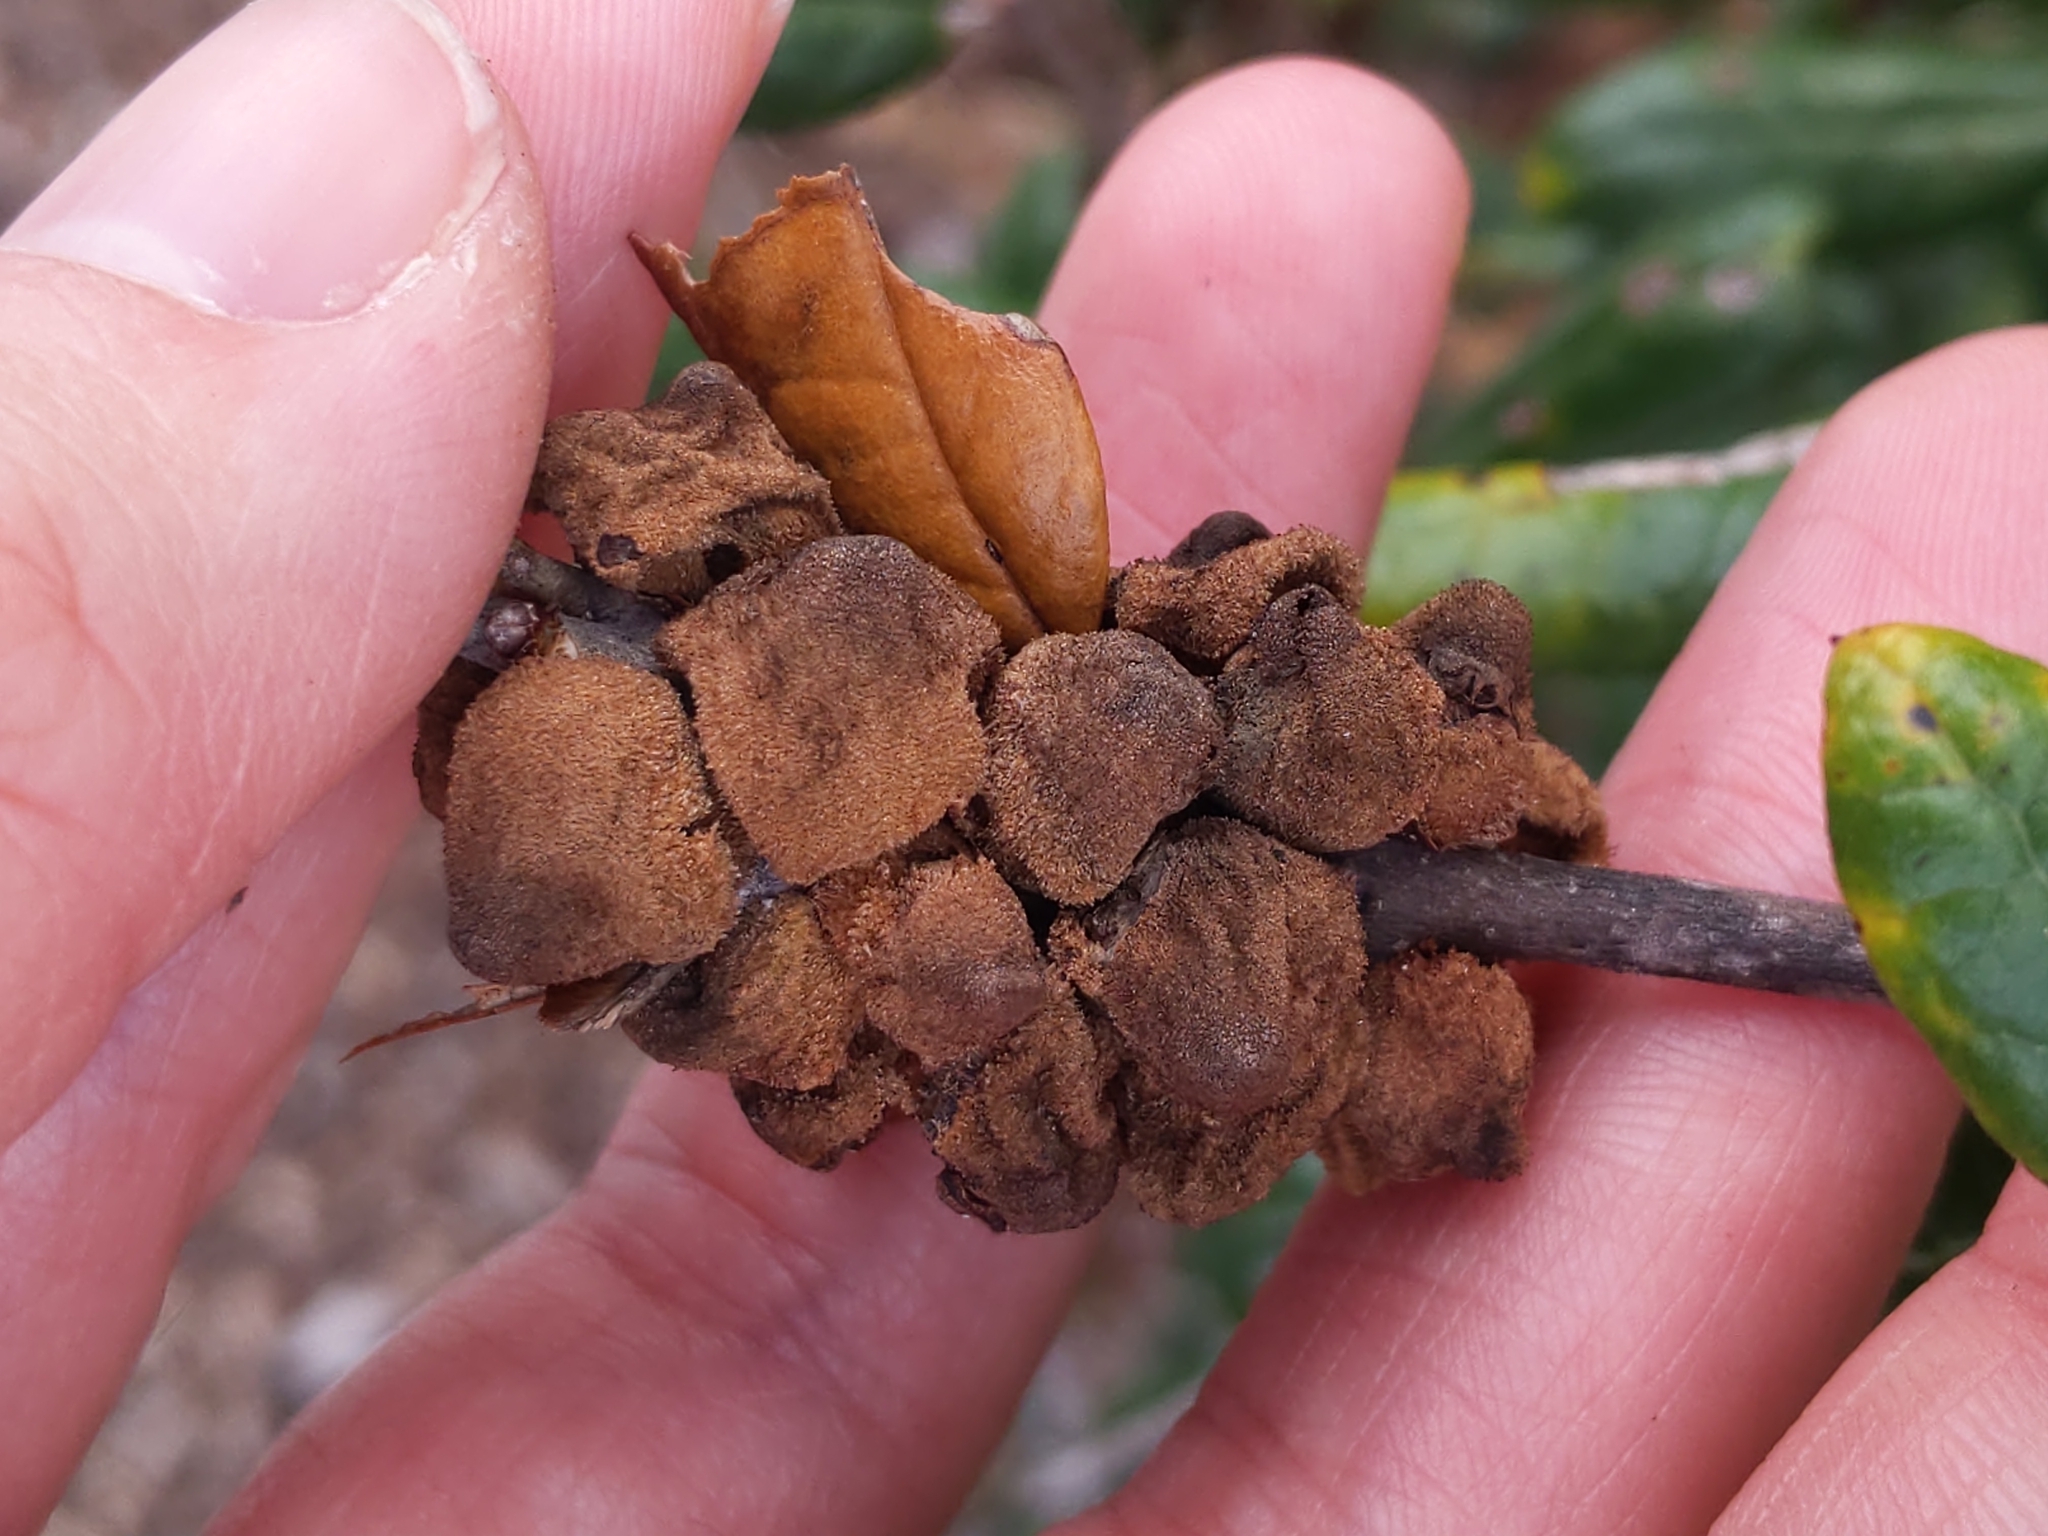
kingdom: Animalia
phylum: Arthropoda
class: Insecta
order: Hymenoptera
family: Cynipidae
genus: Disholcaspis
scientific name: Disholcaspis
